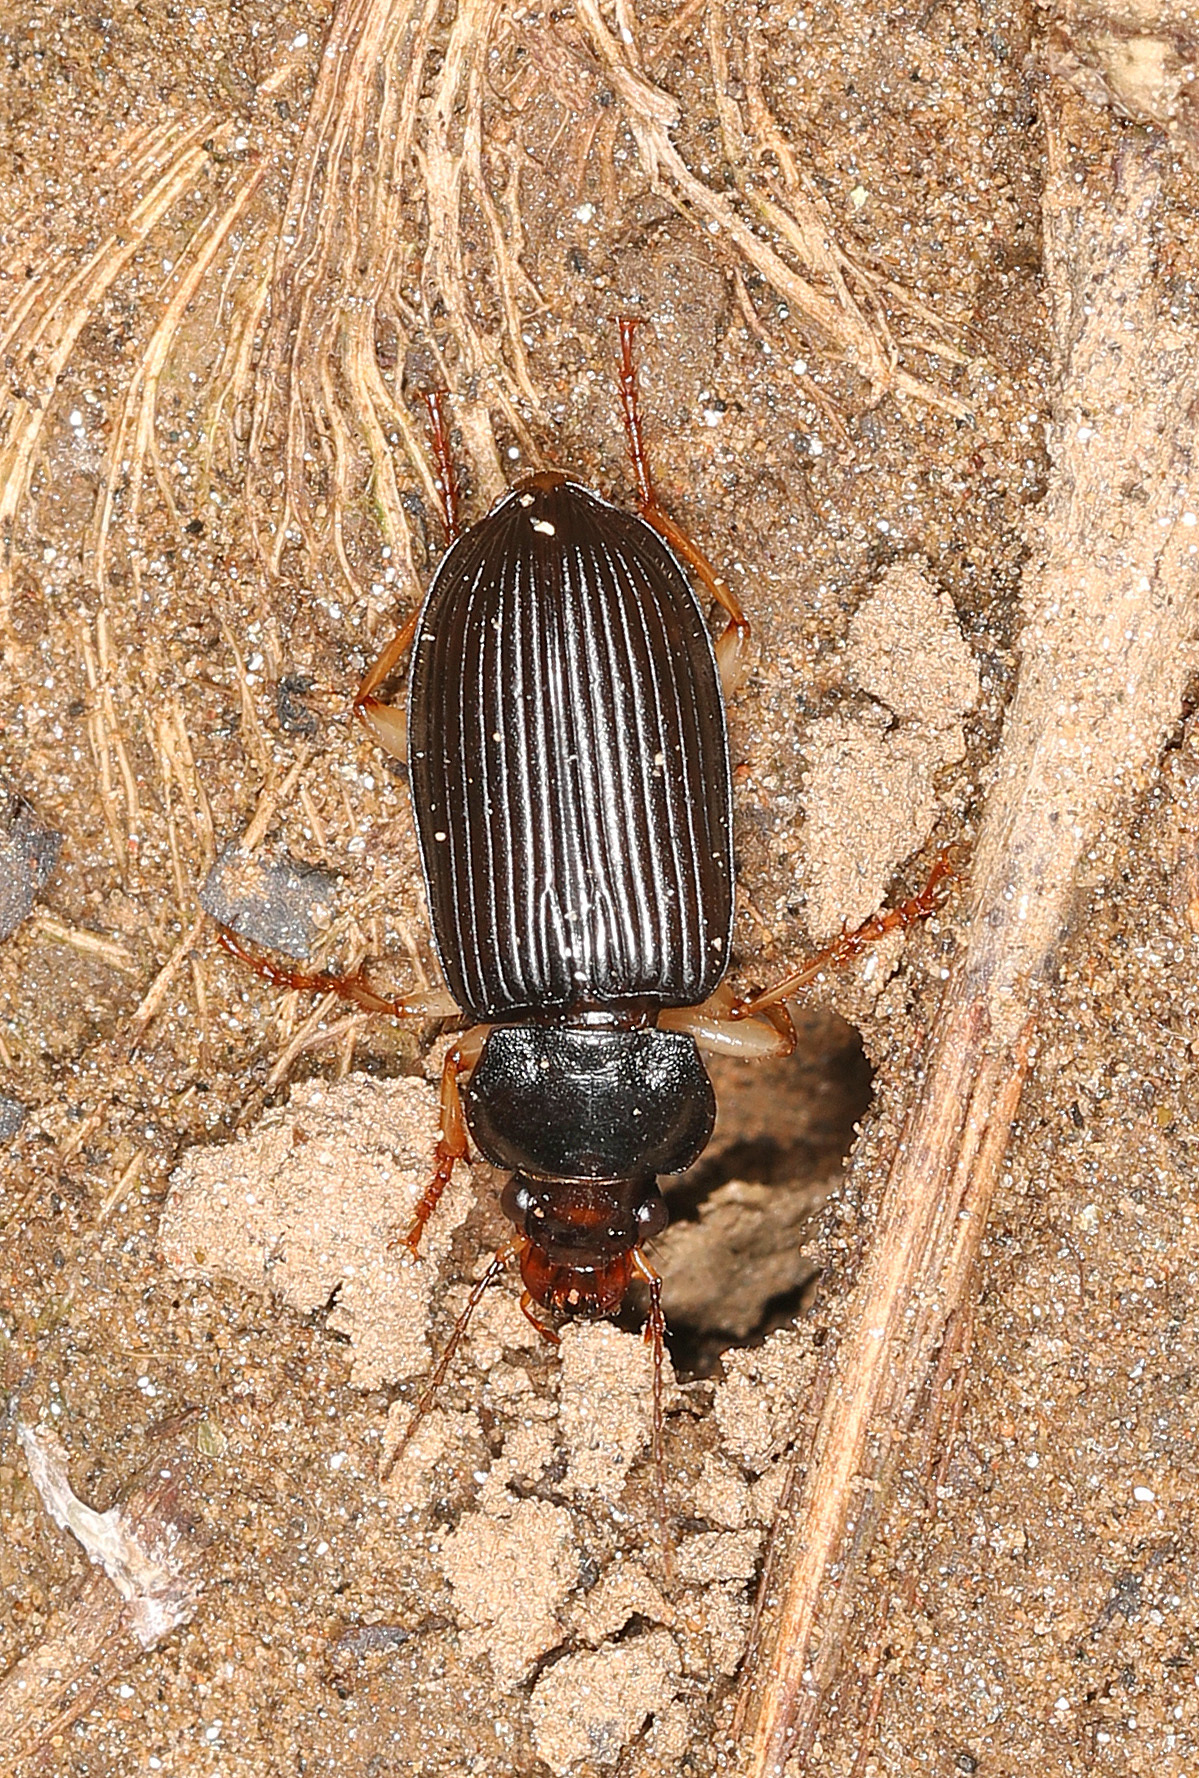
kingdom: Animalia
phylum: Arthropoda
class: Insecta
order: Coleoptera
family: Carabidae
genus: Anisodactylus
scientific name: Anisodactylus verticalis
